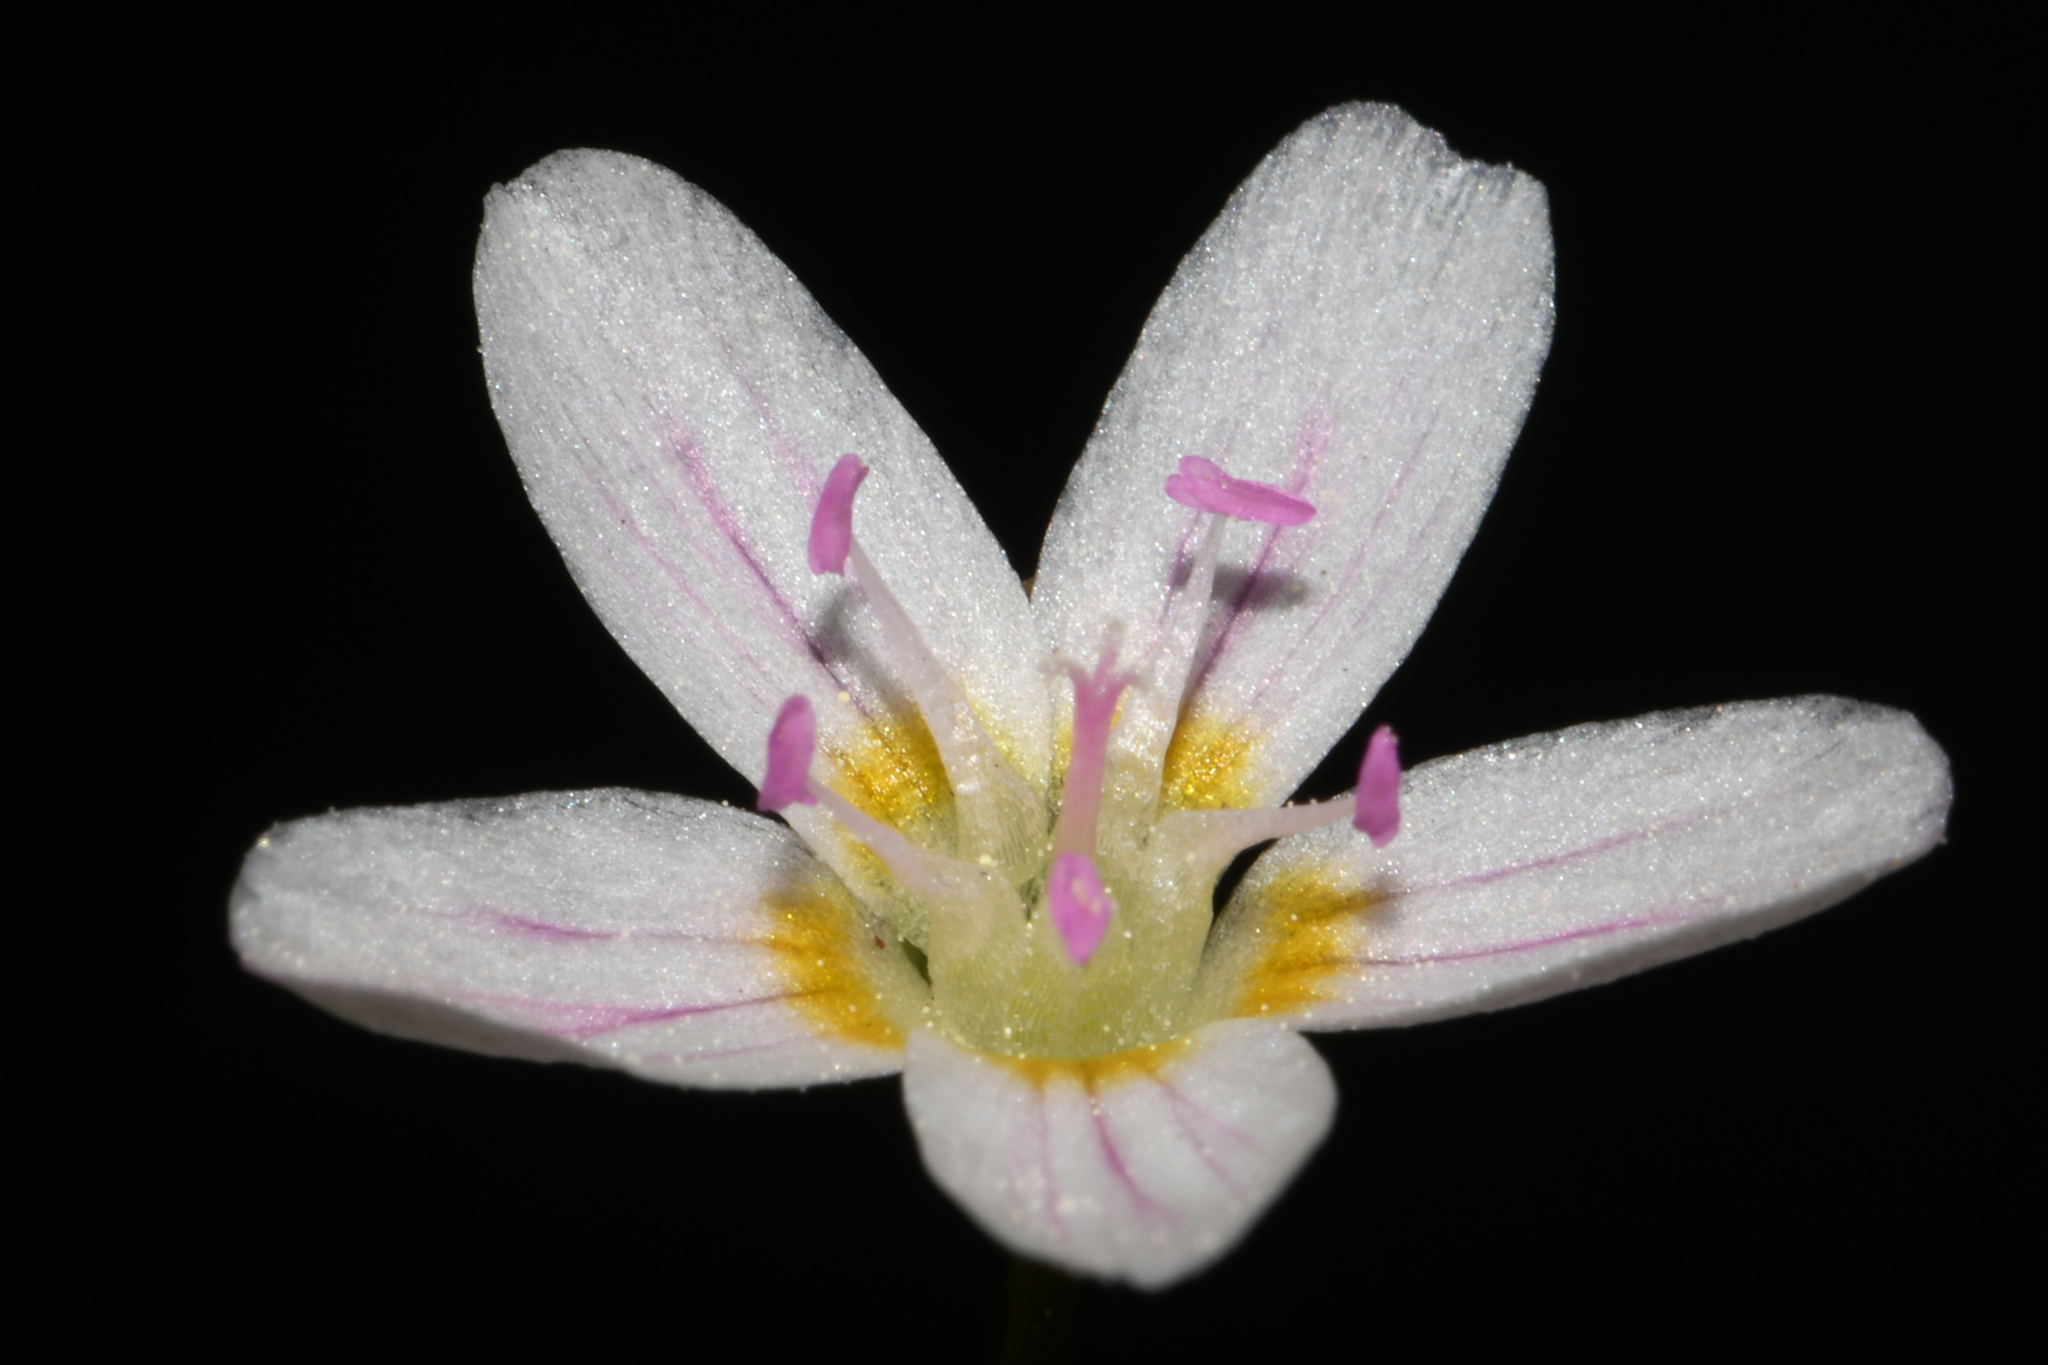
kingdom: Plantae
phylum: Tracheophyta
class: Magnoliopsida
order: Caryophyllales
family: Montiaceae
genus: Claytonia
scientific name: Claytonia lanceolata
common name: Western spring-beauty
